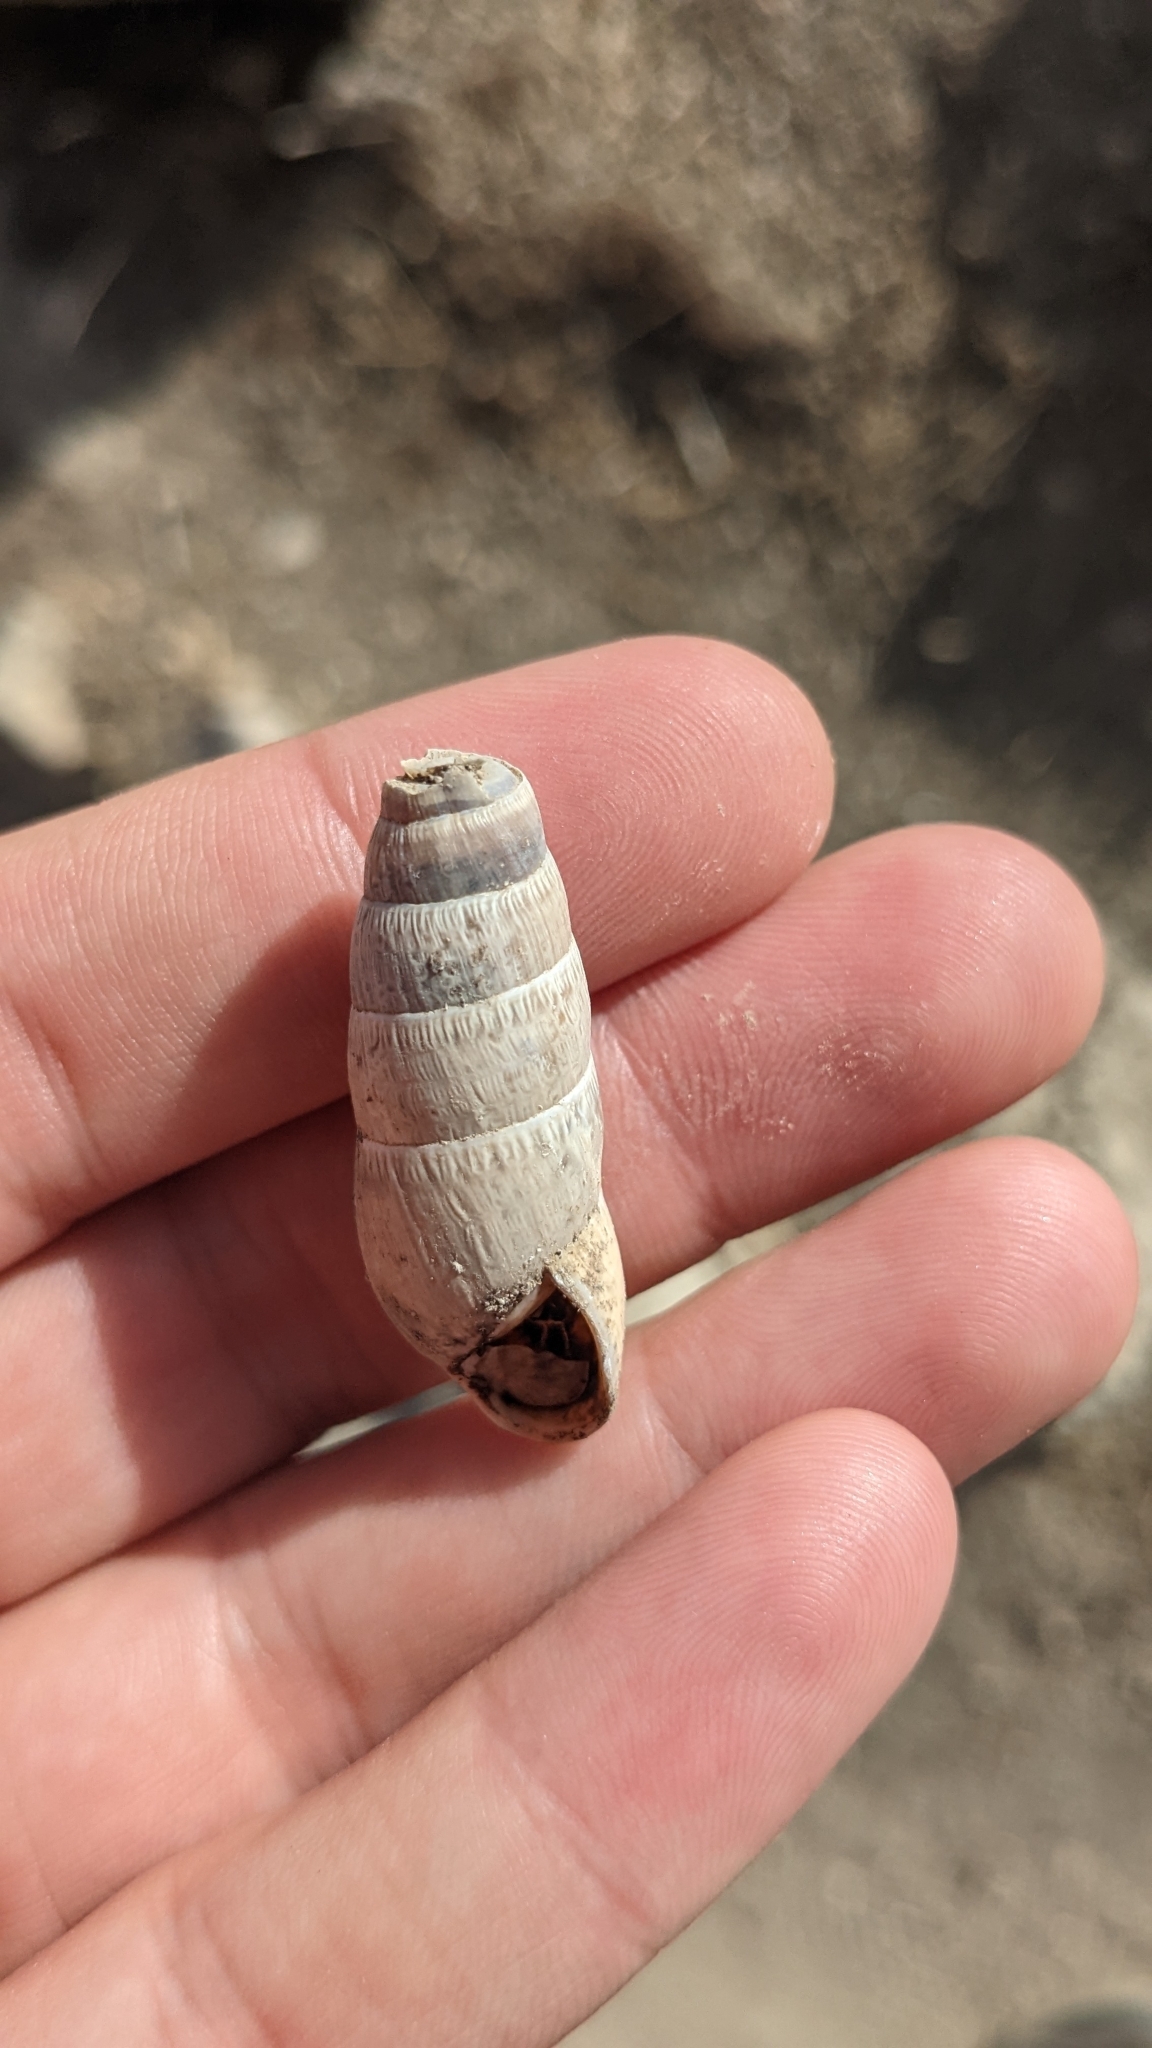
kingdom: Animalia
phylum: Mollusca
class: Gastropoda
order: Stylommatophora
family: Achatinidae
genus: Rumina
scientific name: Rumina decollata
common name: Decollate snail
